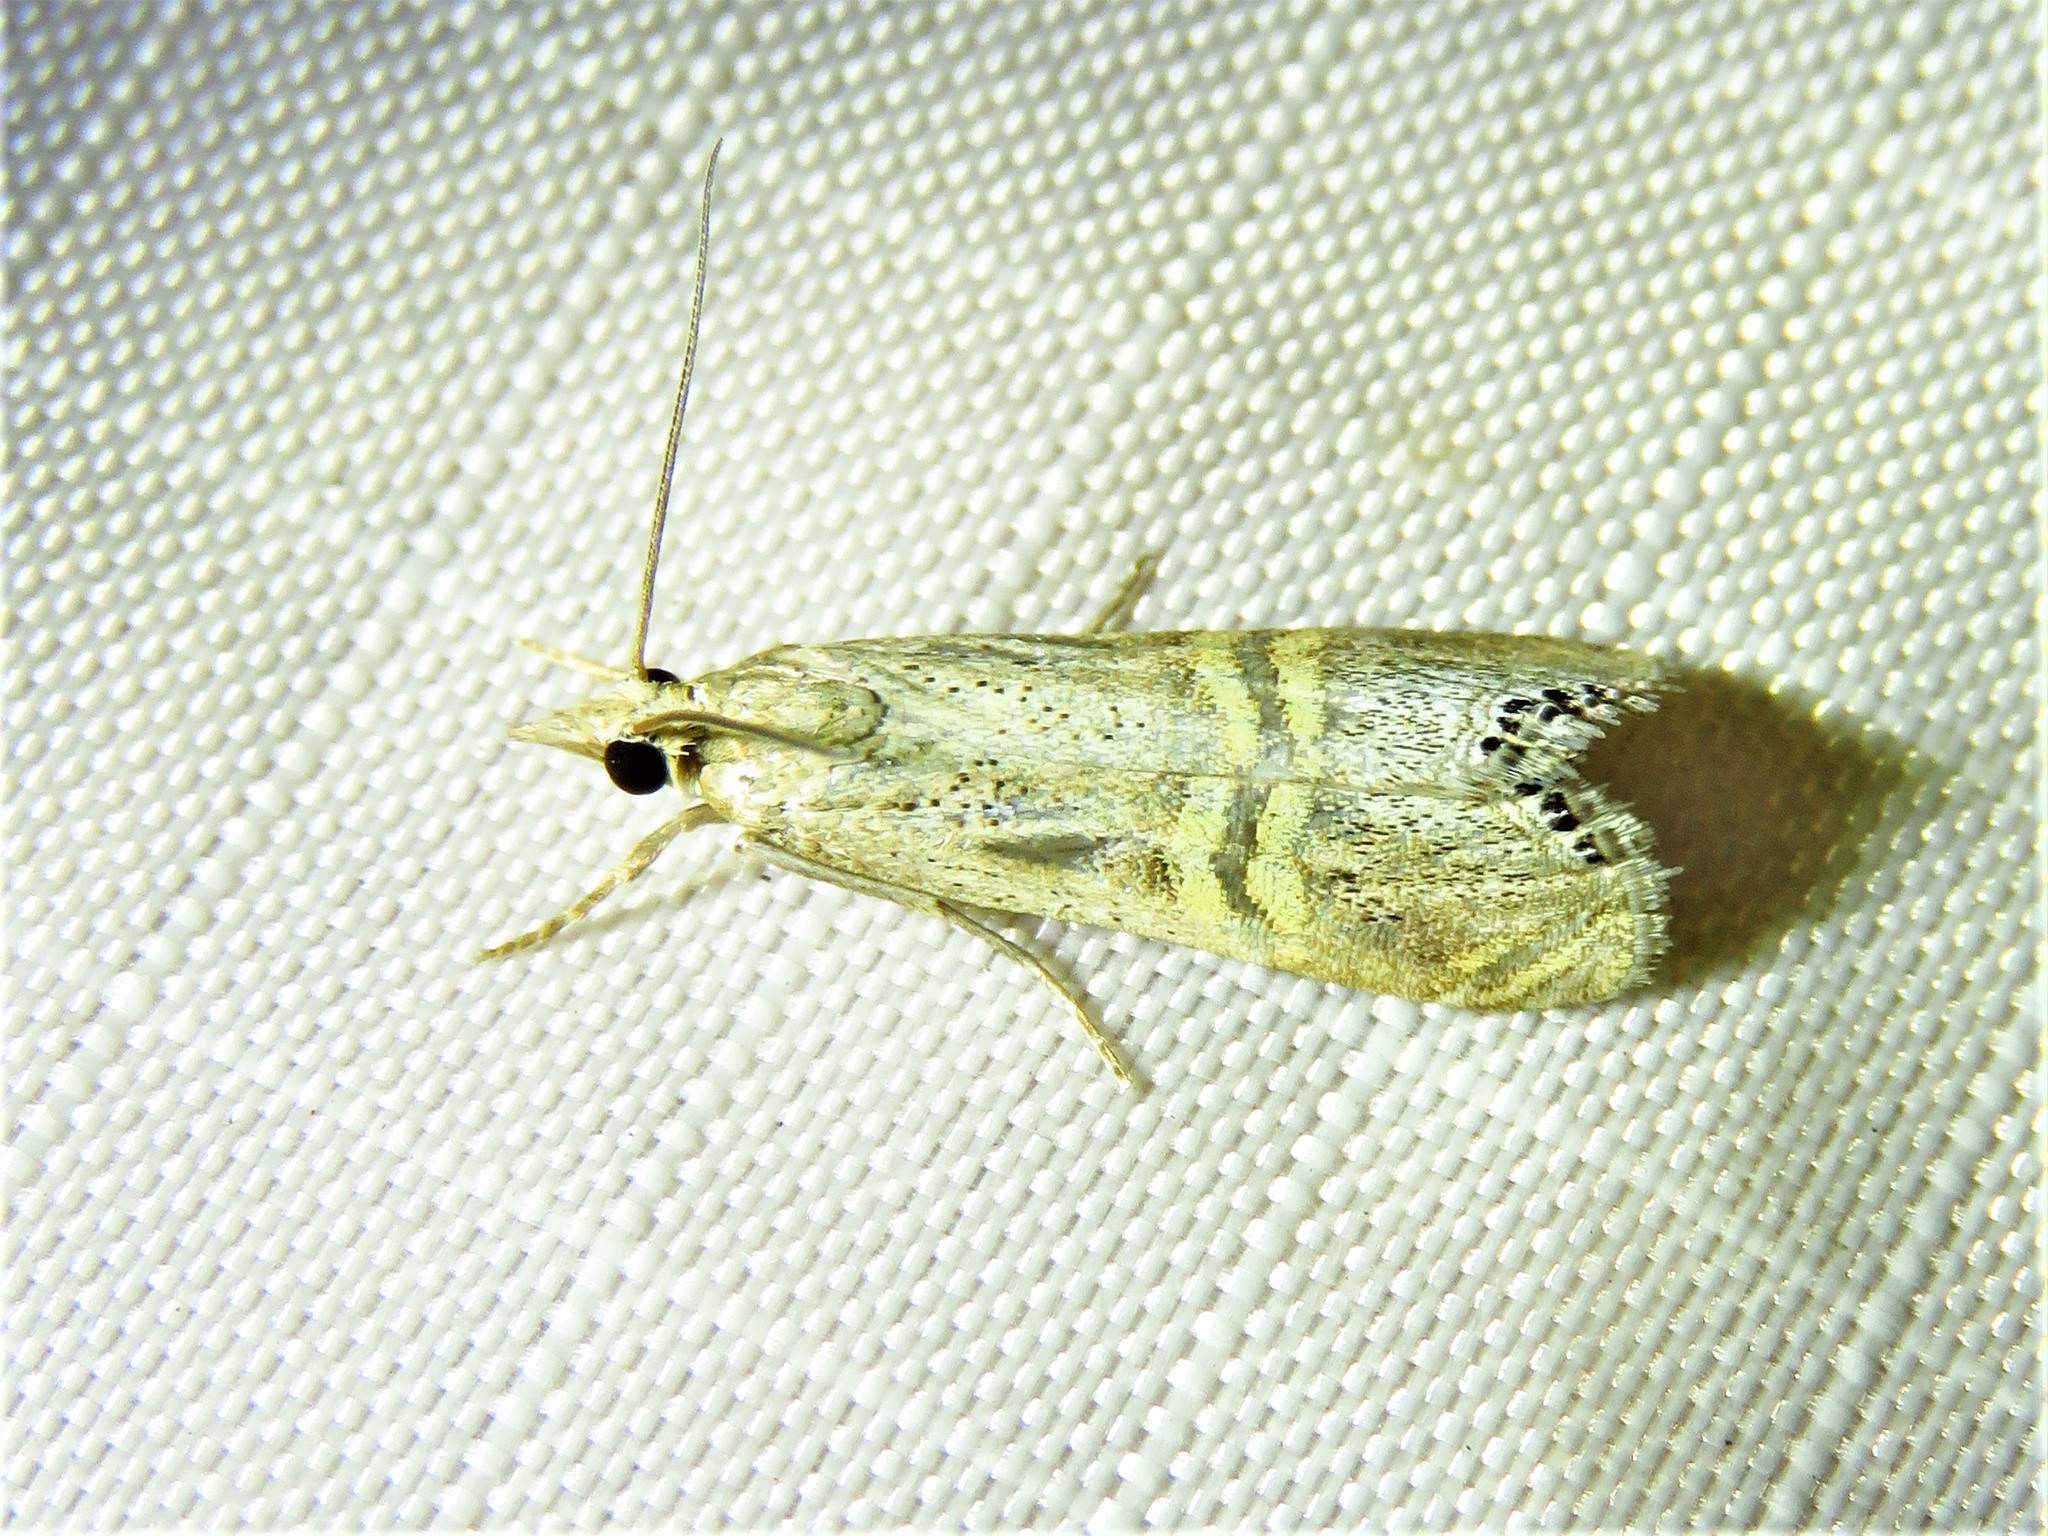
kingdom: Animalia
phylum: Arthropoda
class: Insecta
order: Lepidoptera
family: Crambidae
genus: Euchromius
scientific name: Euchromius ocellea
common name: Necklace veneer moth
